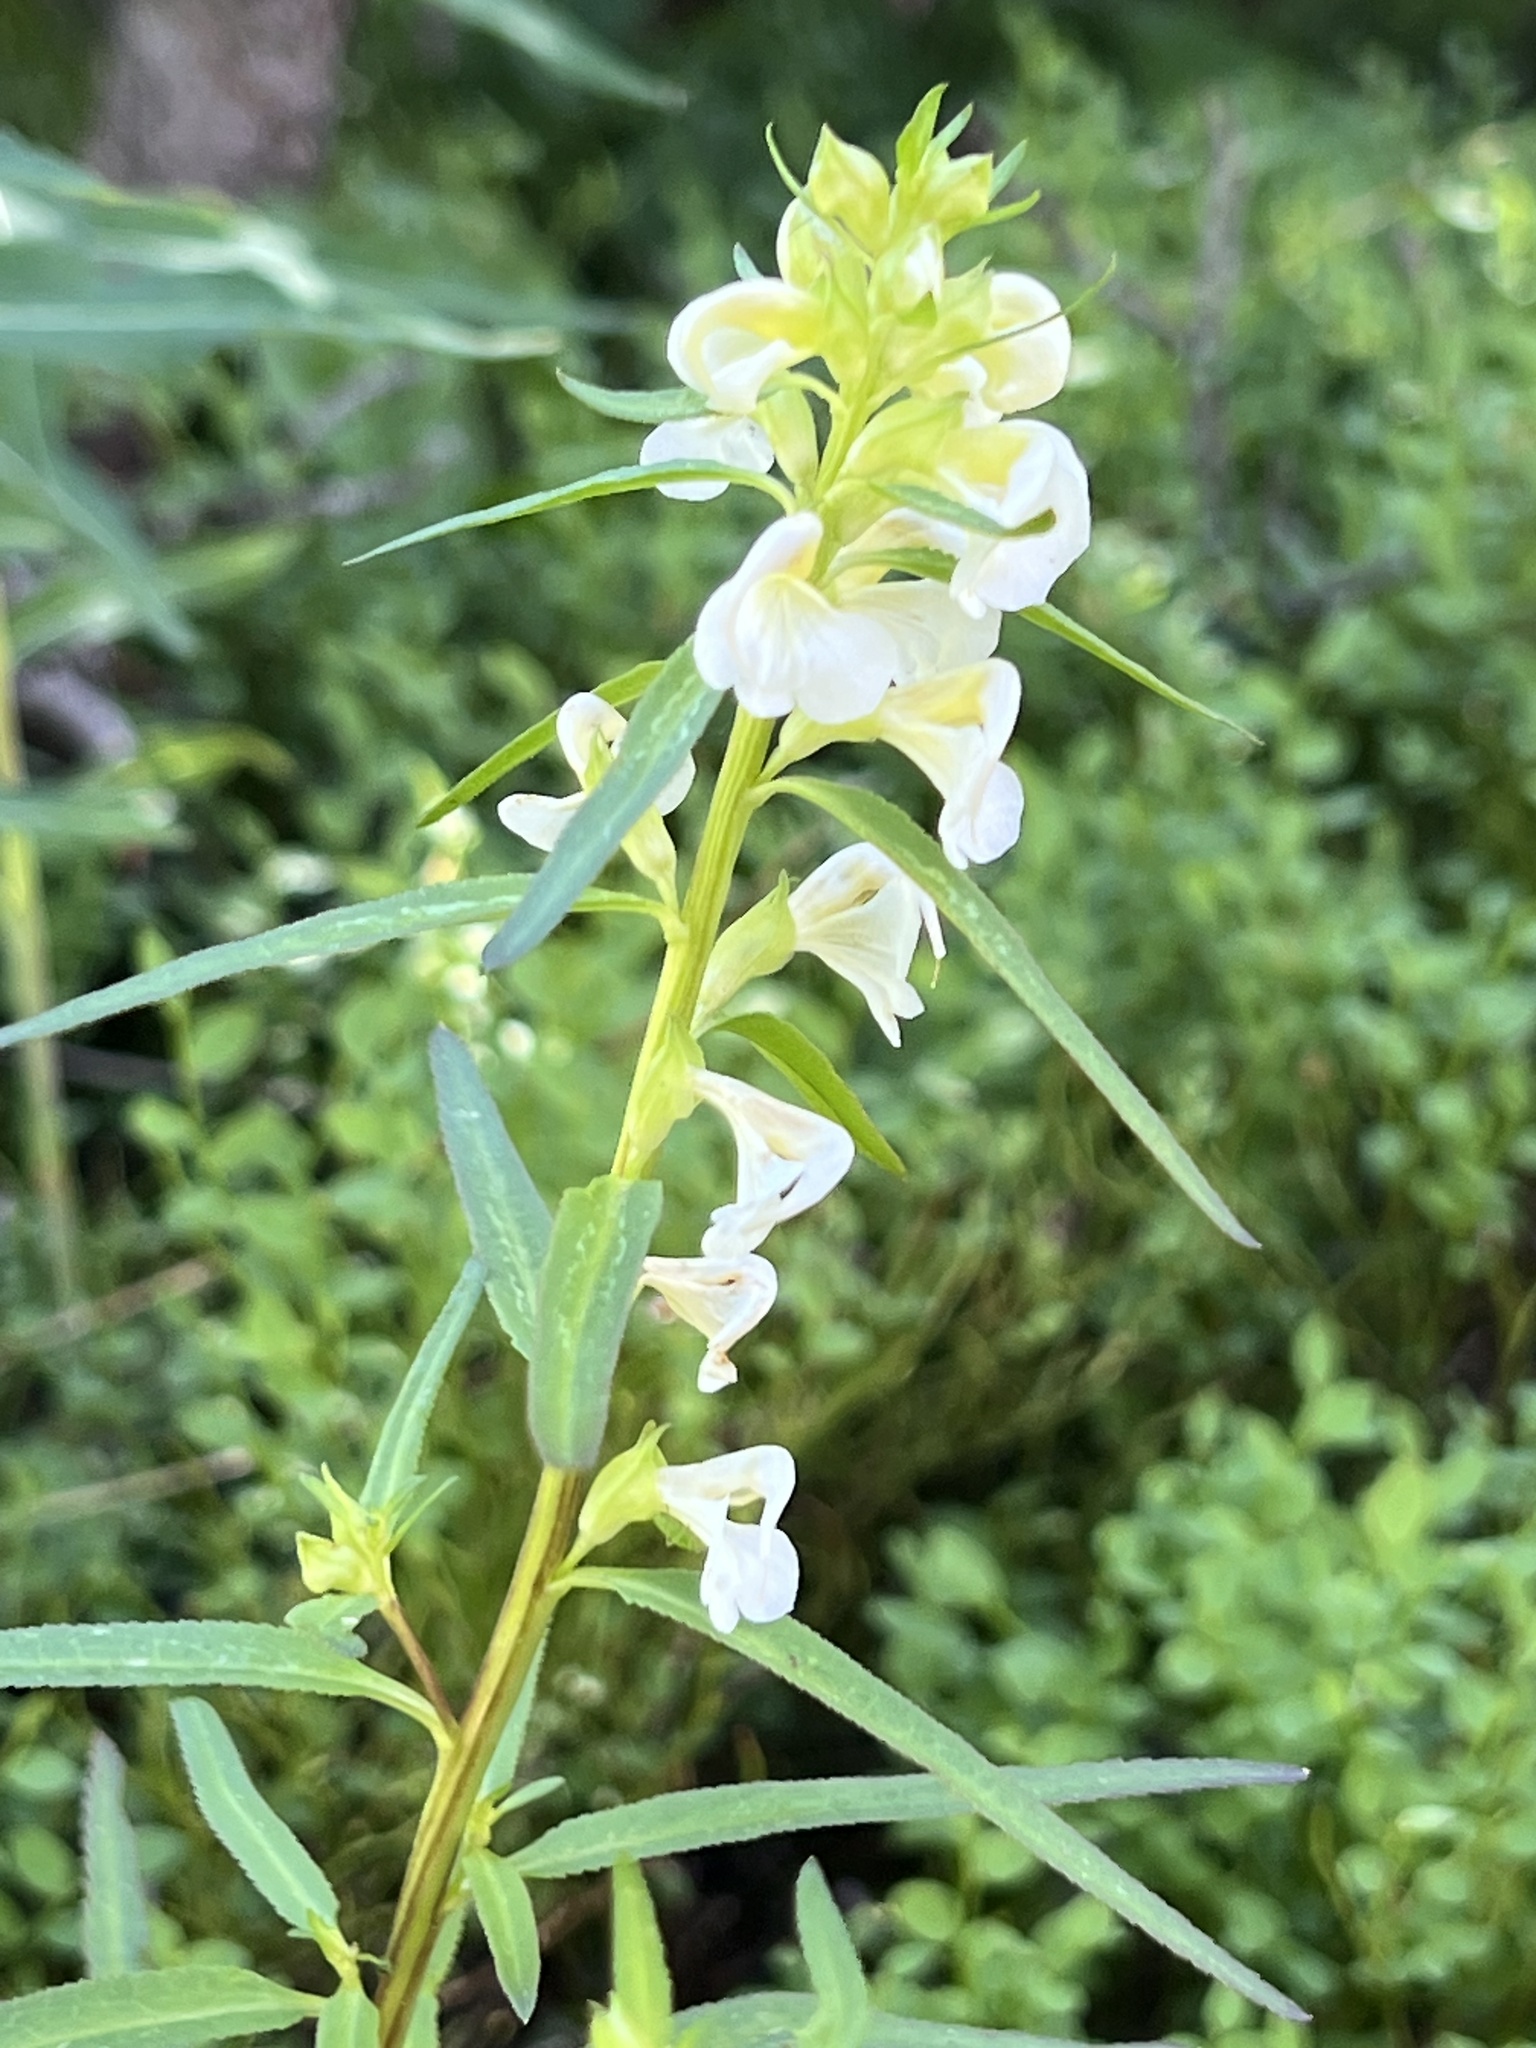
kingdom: Plantae
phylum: Tracheophyta
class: Magnoliopsida
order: Lamiales
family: Orobanchaceae
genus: Pedicularis
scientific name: Pedicularis racemosa
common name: Leafy lousewort
